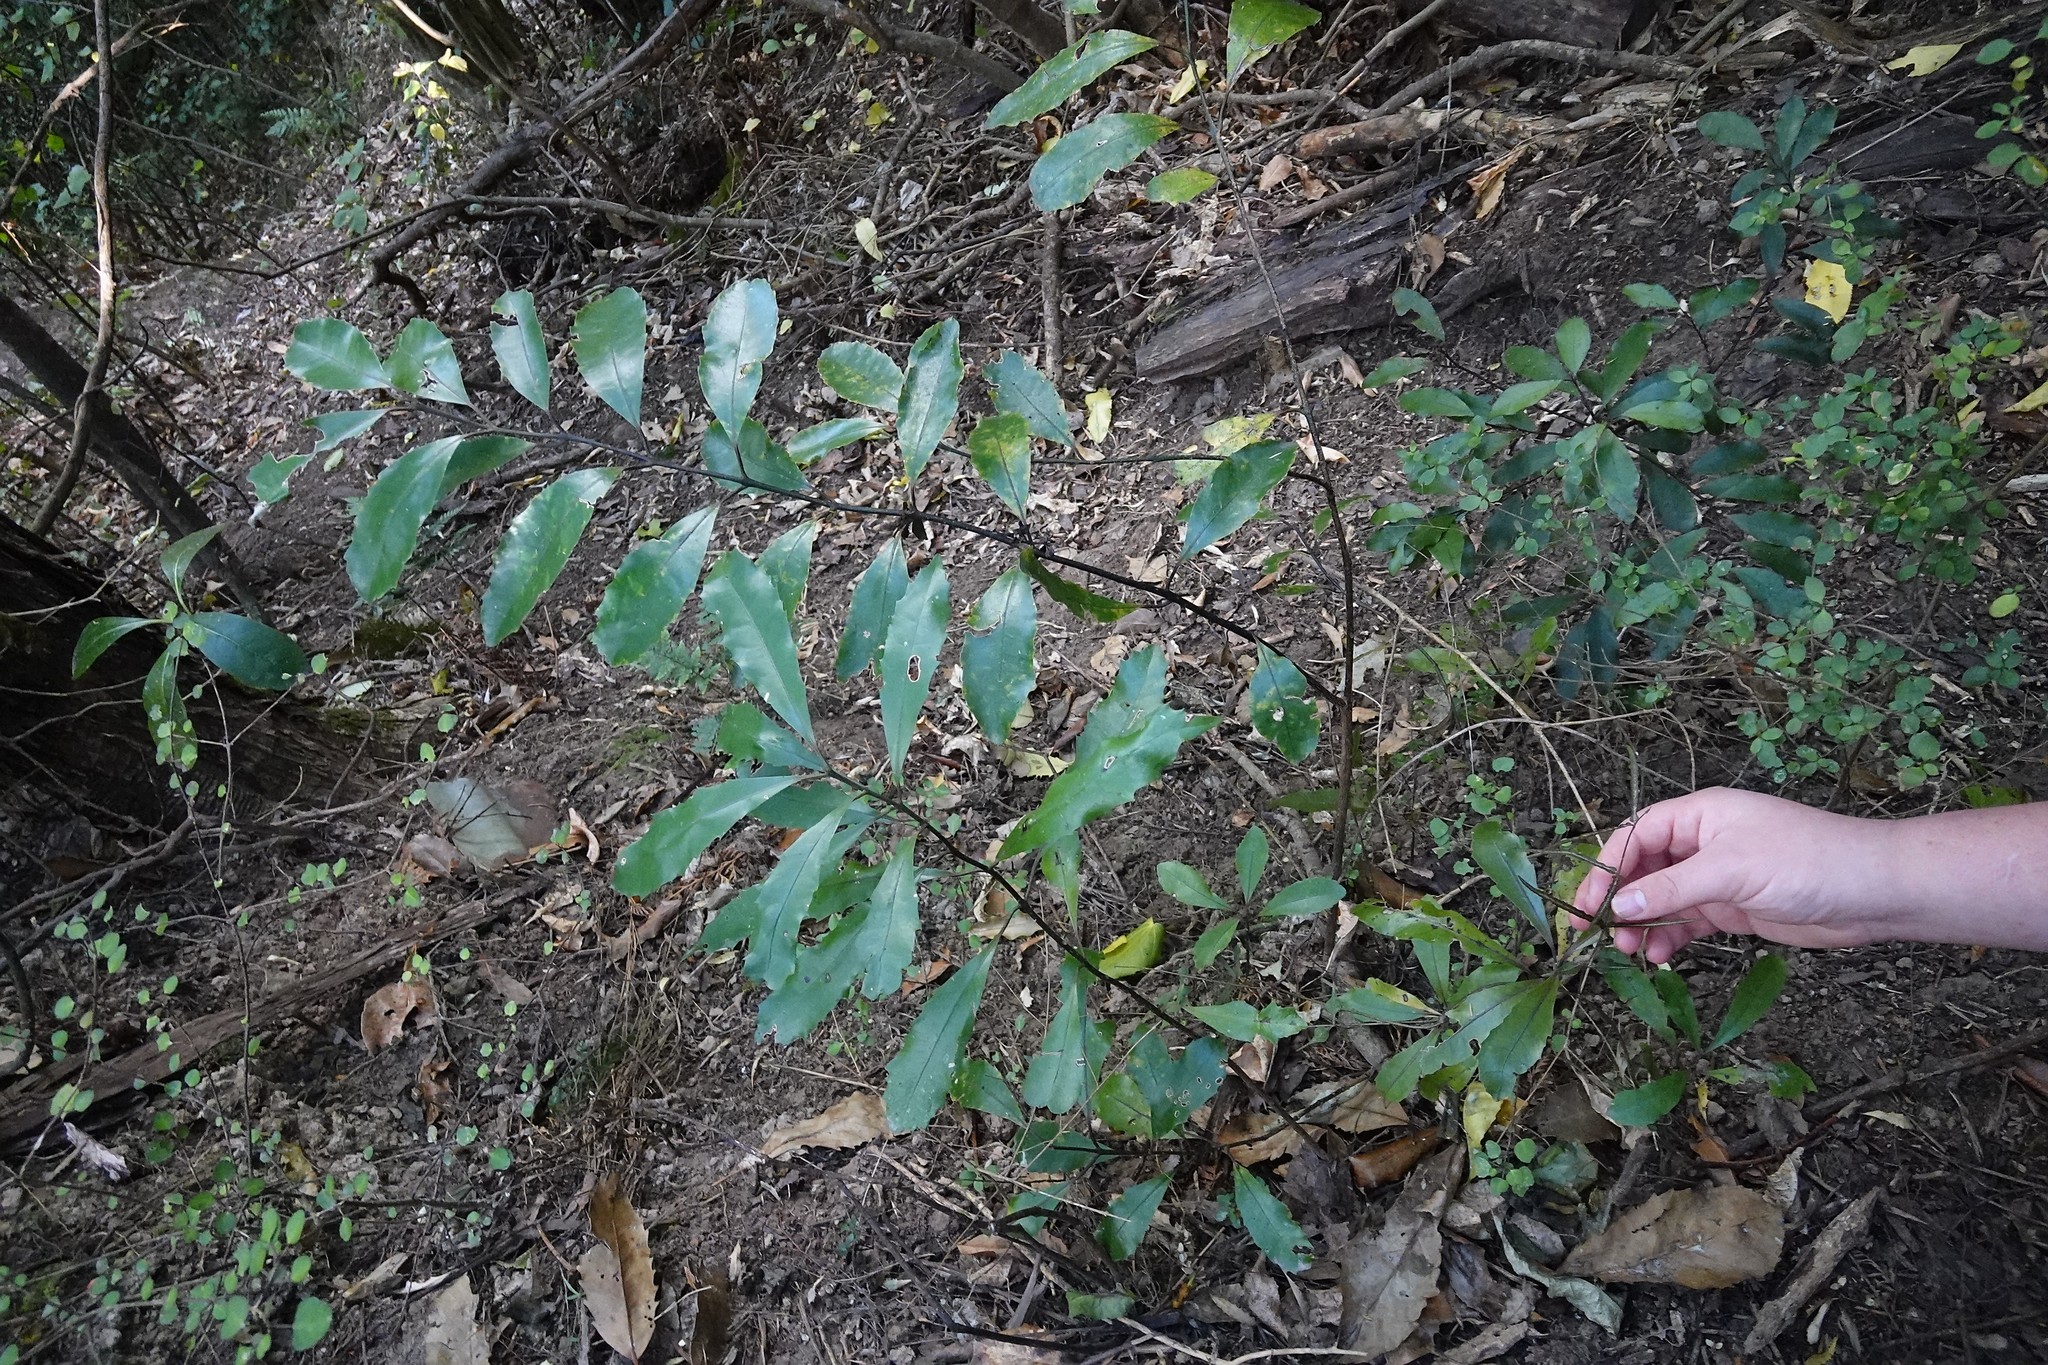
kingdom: Plantae
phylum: Tracheophyta
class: Magnoliopsida
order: Laurales
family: Monimiaceae
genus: Hedycarya
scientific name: Hedycarya arborea
